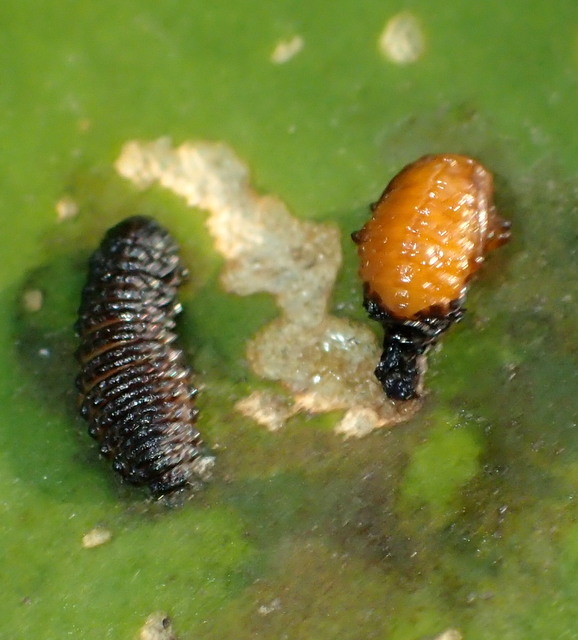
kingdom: Animalia
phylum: Arthropoda
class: Insecta
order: Coleoptera
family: Chrysomelidae
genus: Galerucella
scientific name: Galerucella nymphaeae
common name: Leaf beetle
